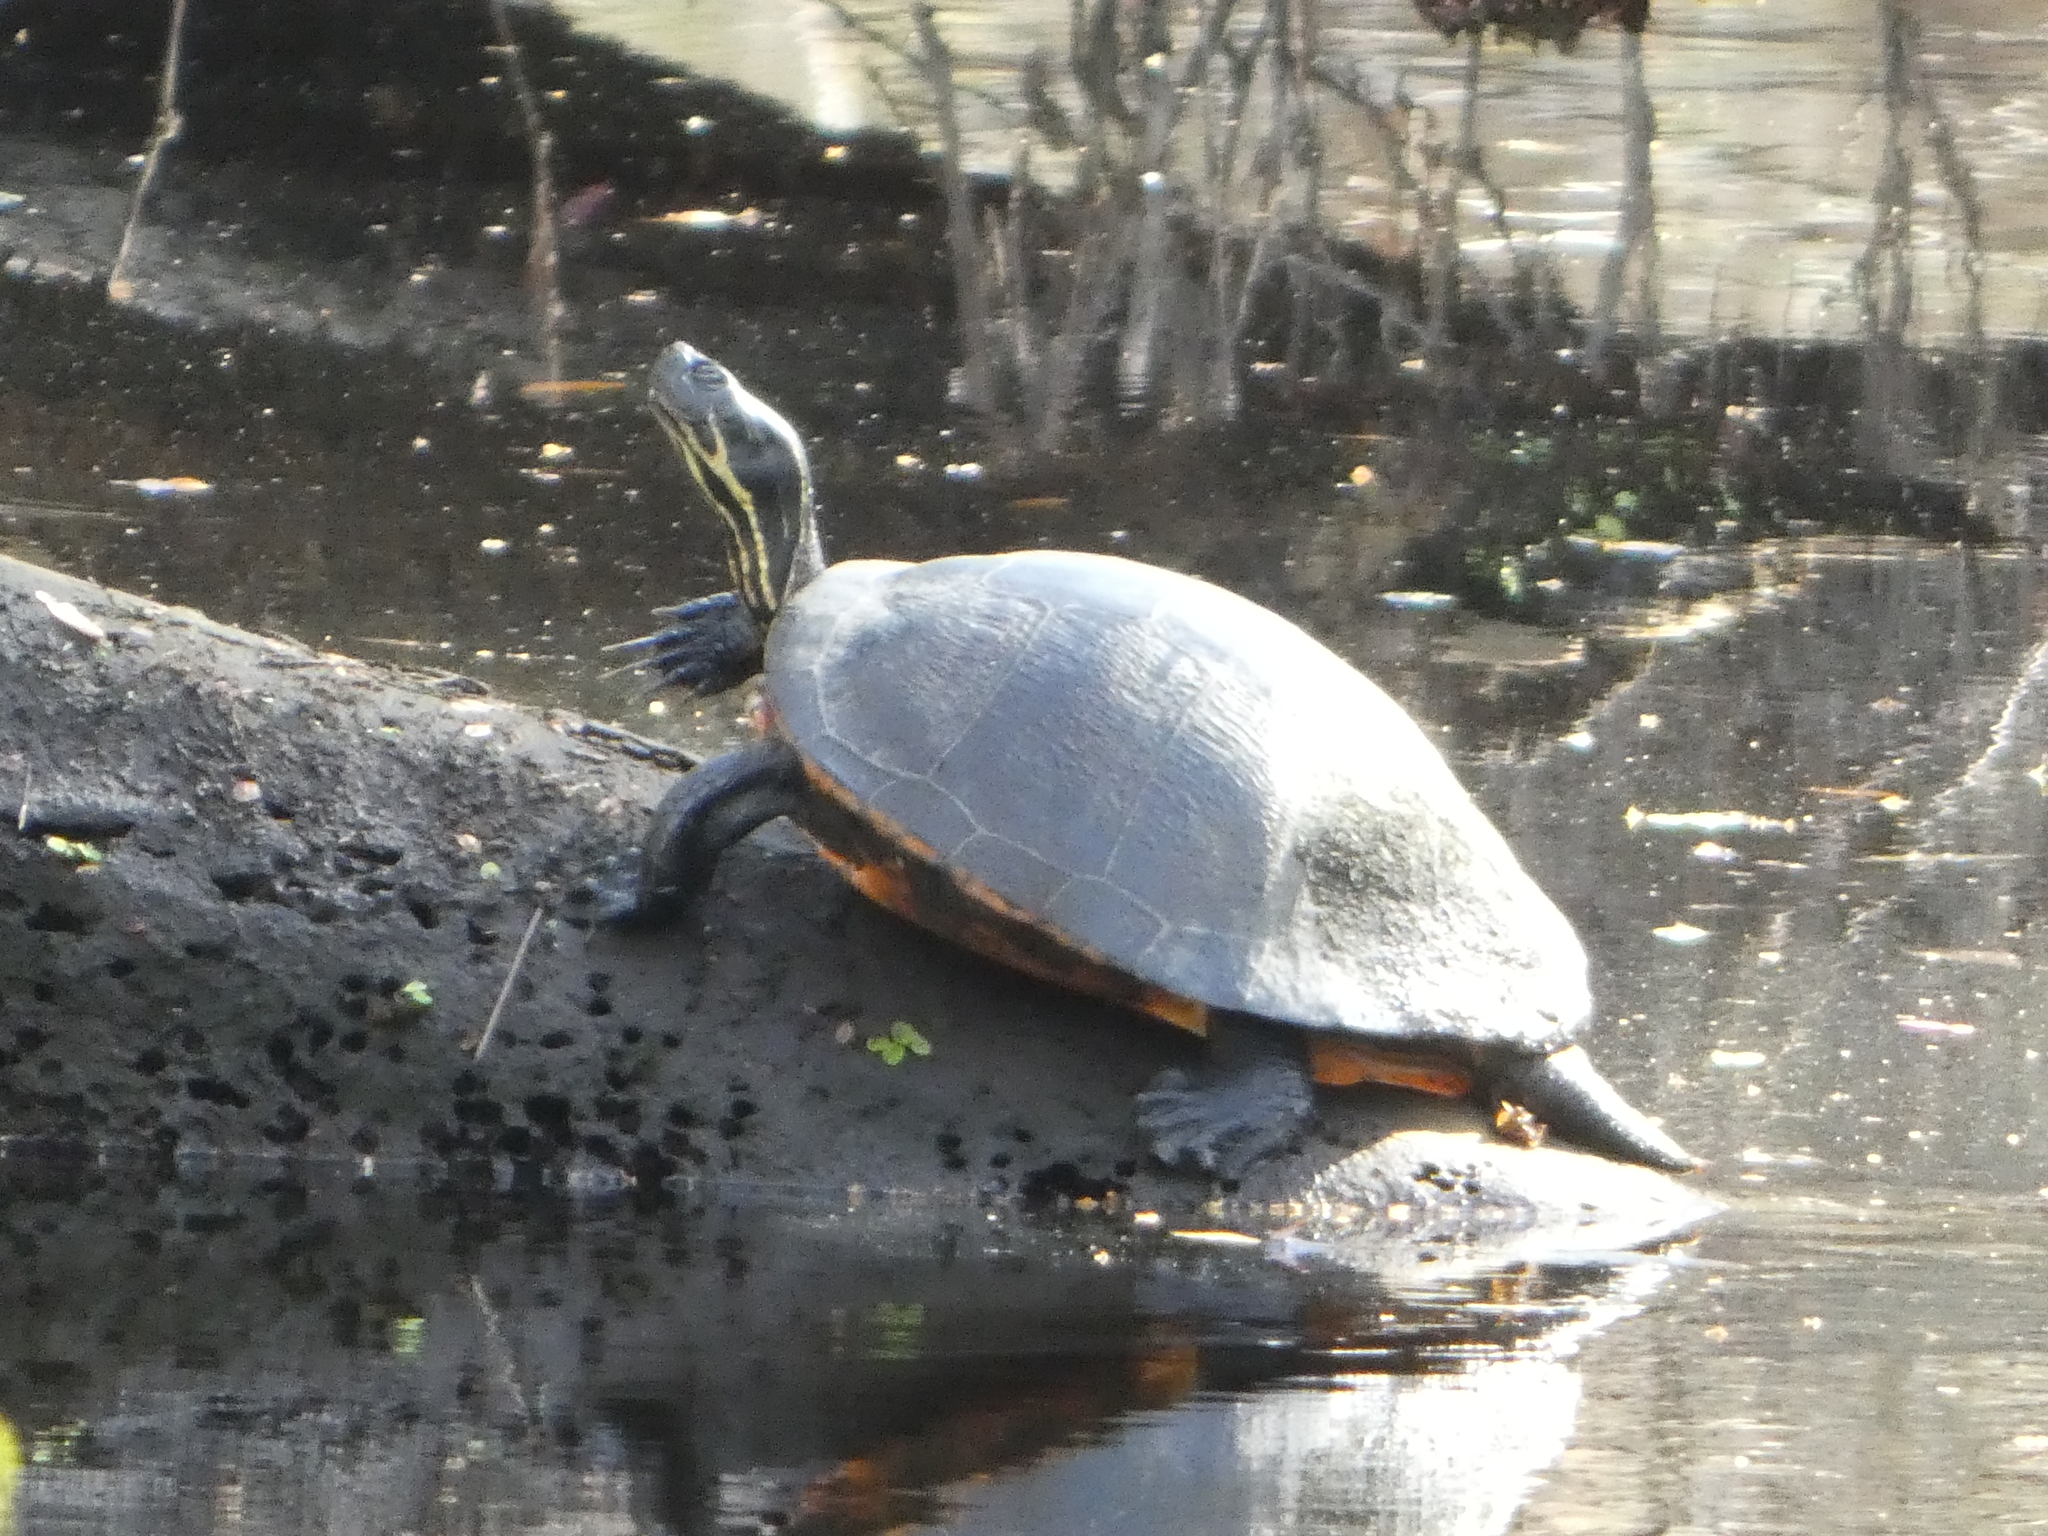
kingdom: Animalia
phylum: Chordata
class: Testudines
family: Emydidae
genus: Pseudemys
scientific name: Pseudemys nelsoni
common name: Florida red-bellied turtle
